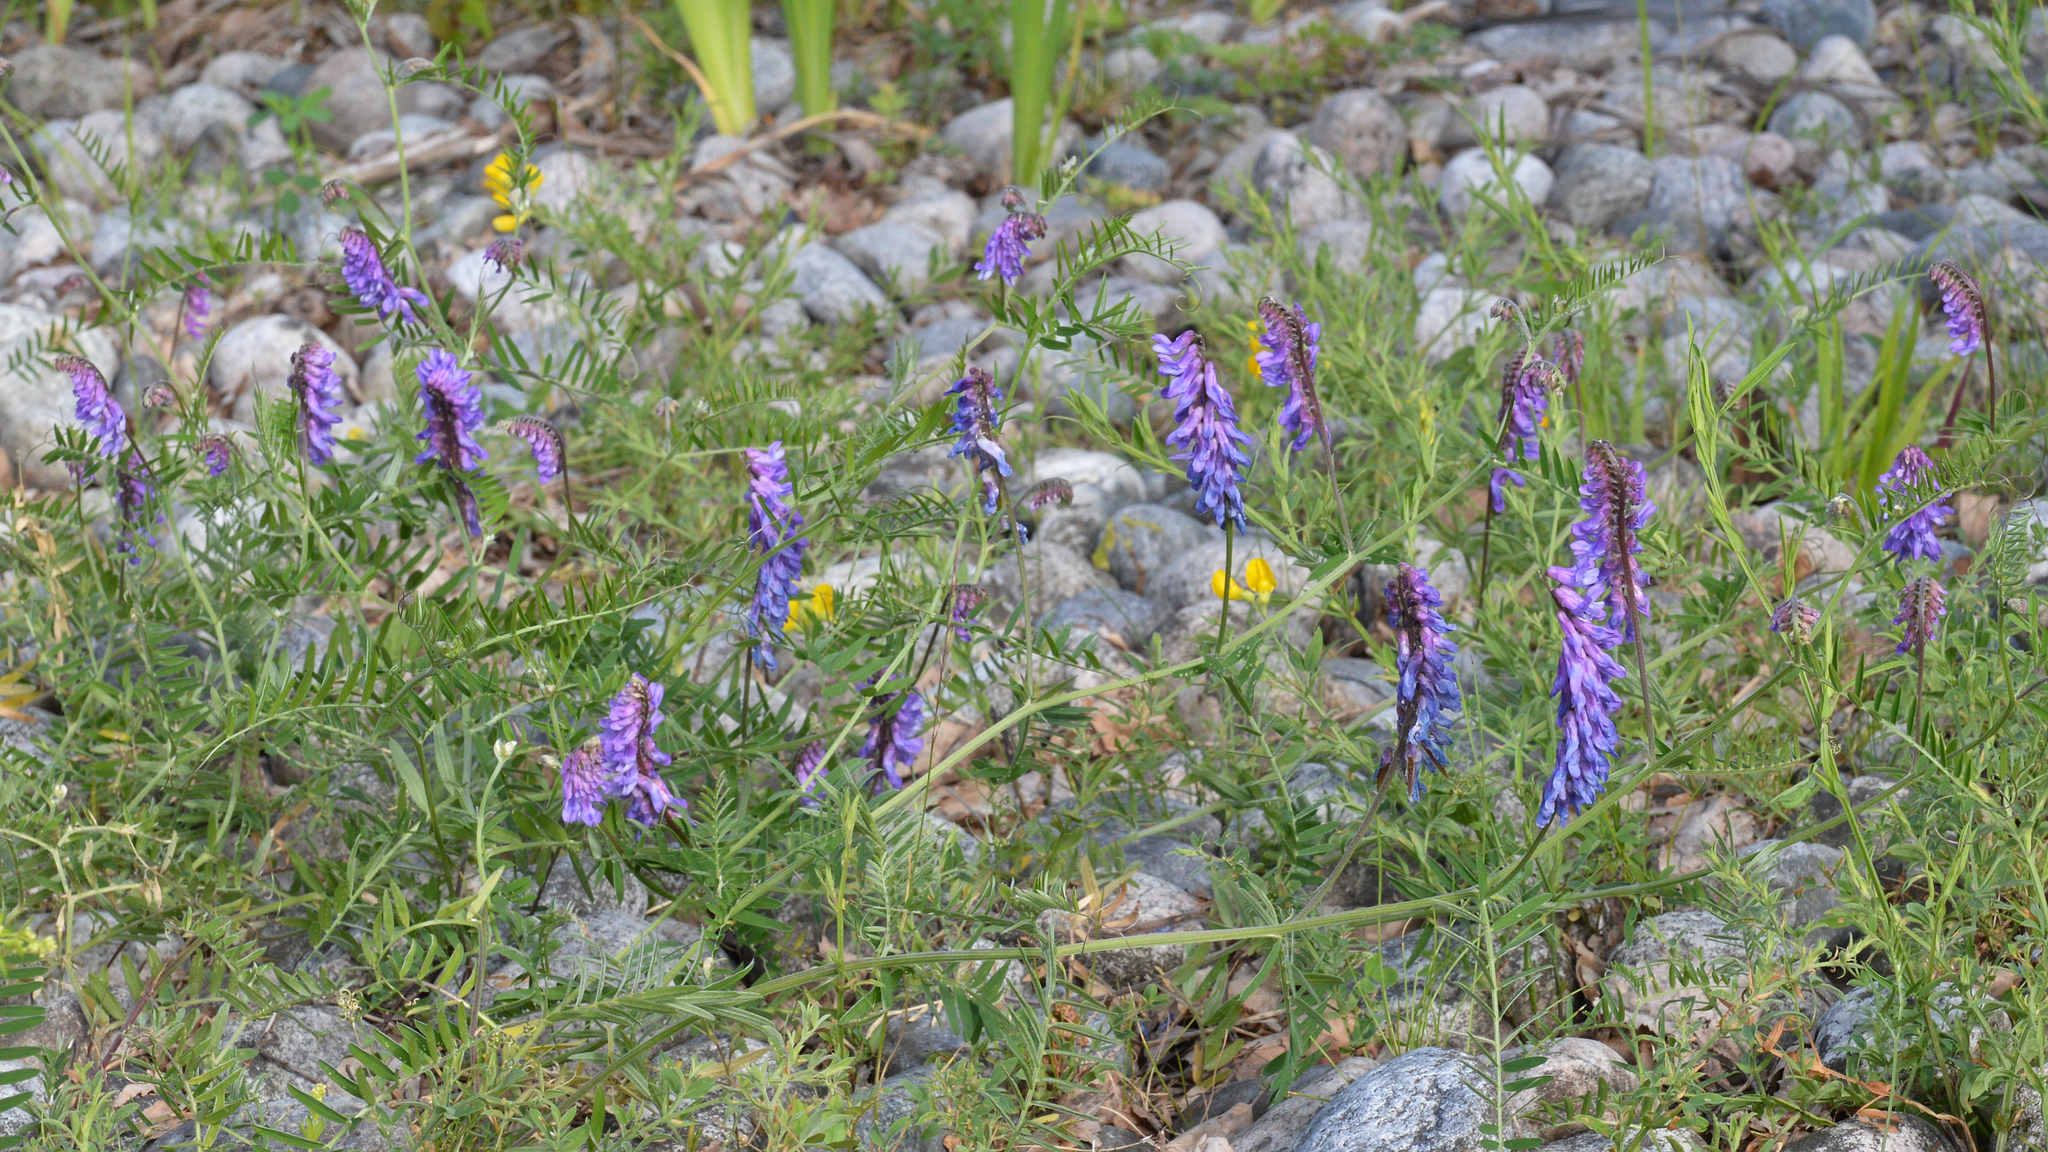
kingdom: Plantae
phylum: Tracheophyta
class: Magnoliopsida
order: Fabales
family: Fabaceae
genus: Vicia
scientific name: Vicia cracca
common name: Bird vetch
